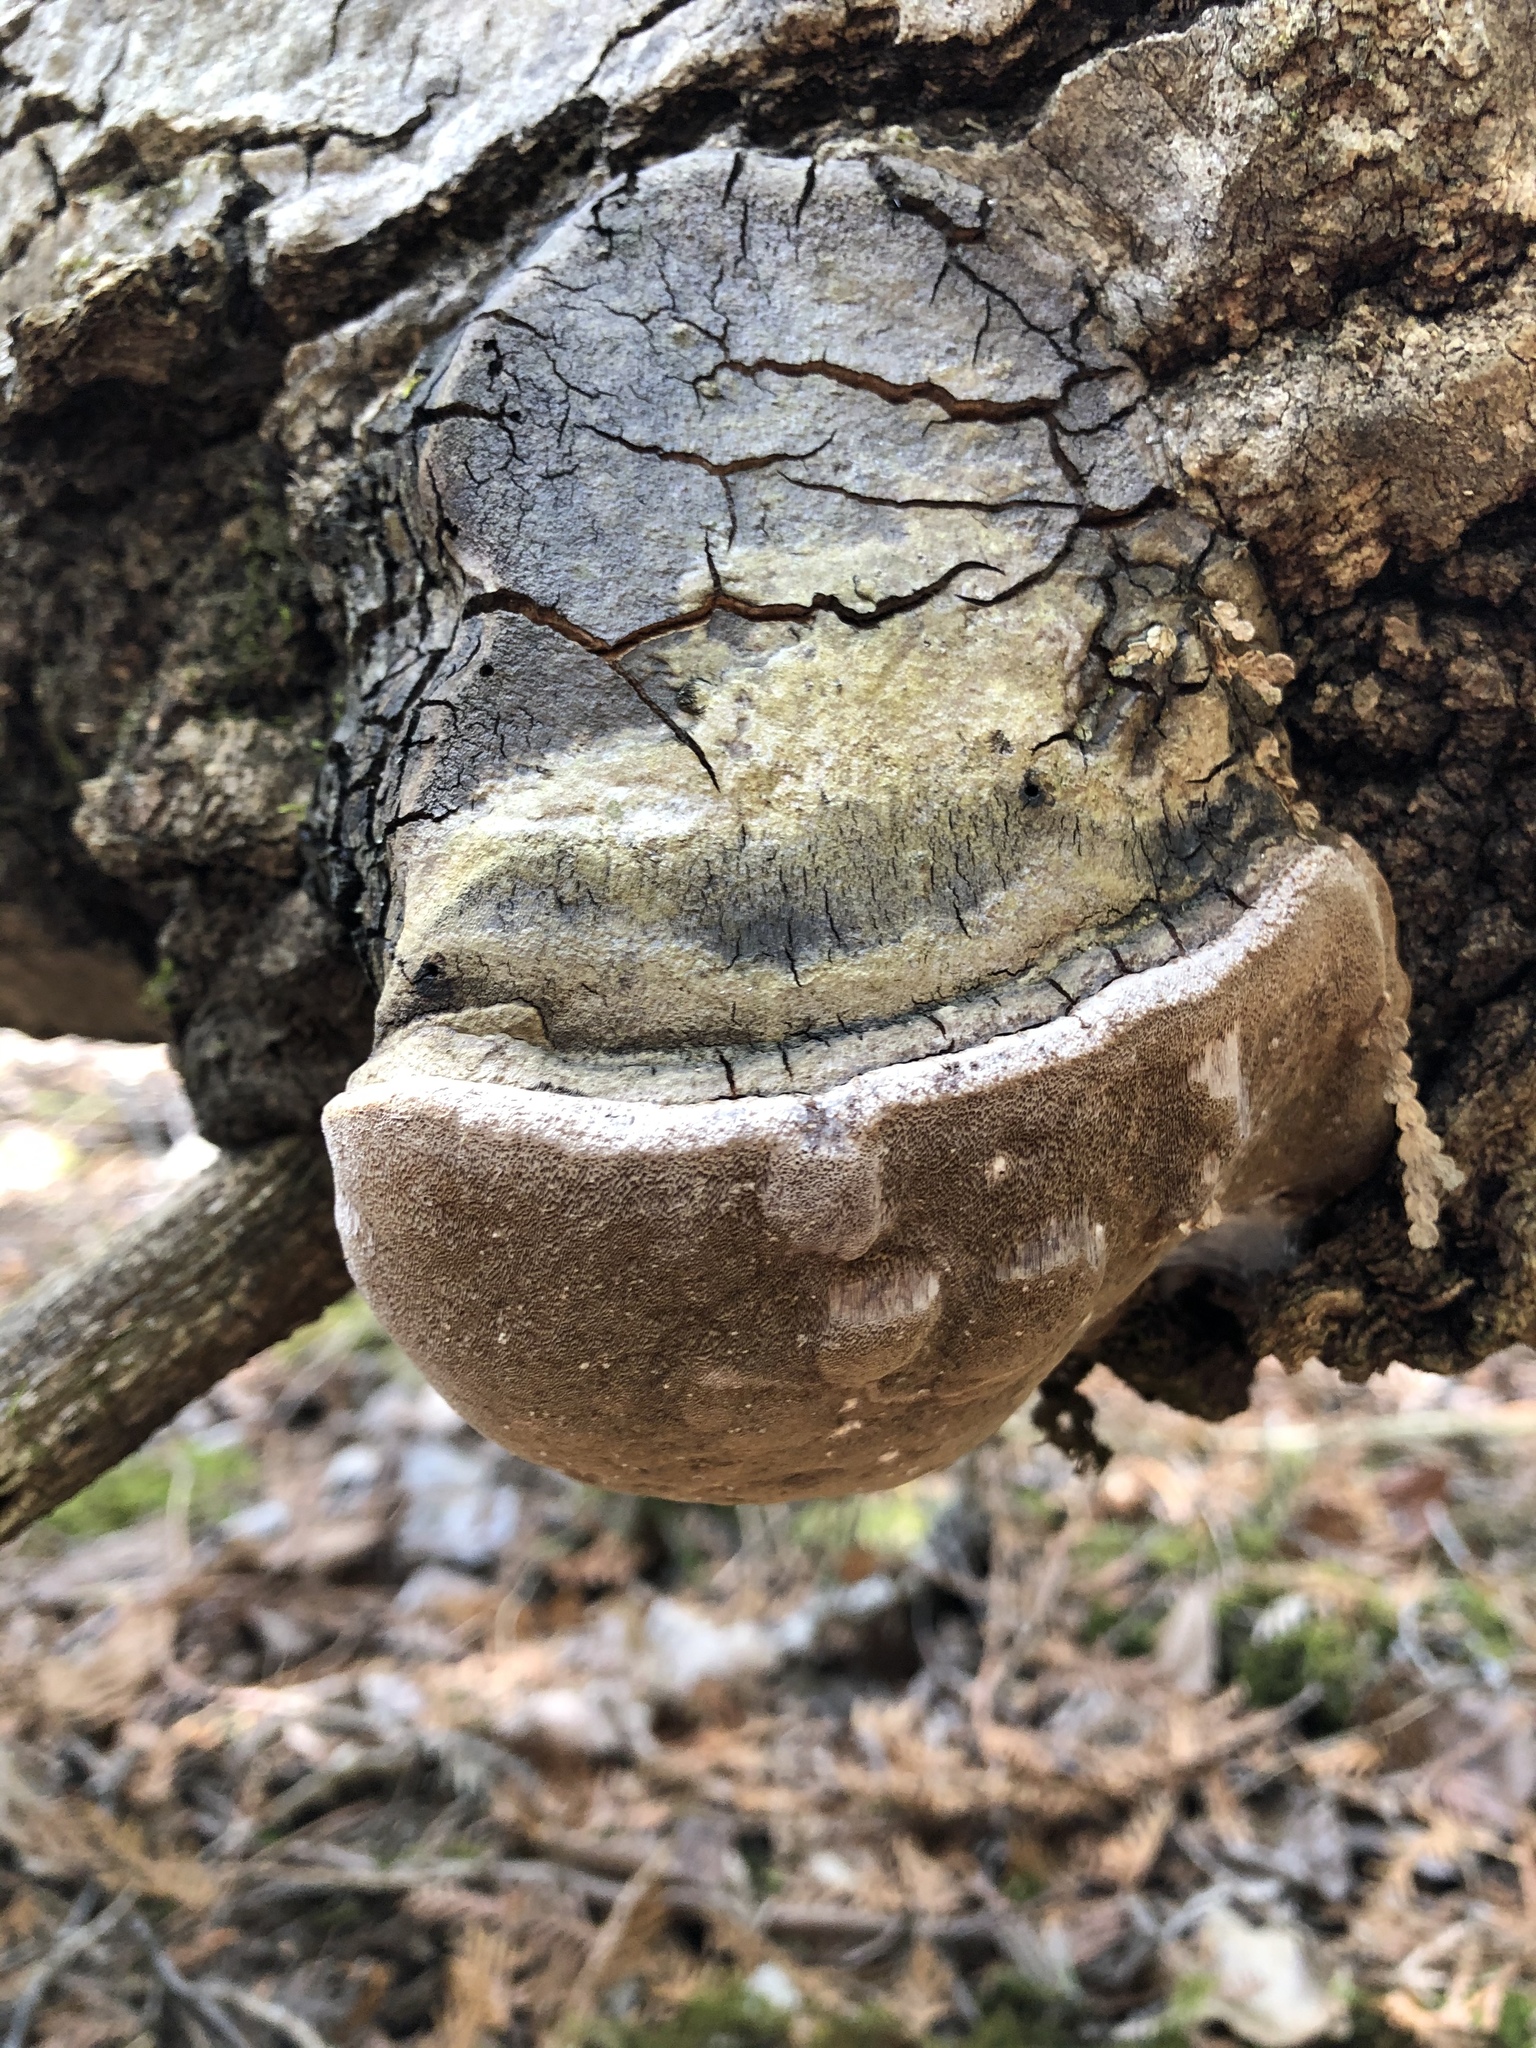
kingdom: Fungi
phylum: Basidiomycota
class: Agaricomycetes
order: Hymenochaetales
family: Hymenochaetaceae
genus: Phellinus
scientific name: Phellinus tremulae
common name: Aspen bracket
